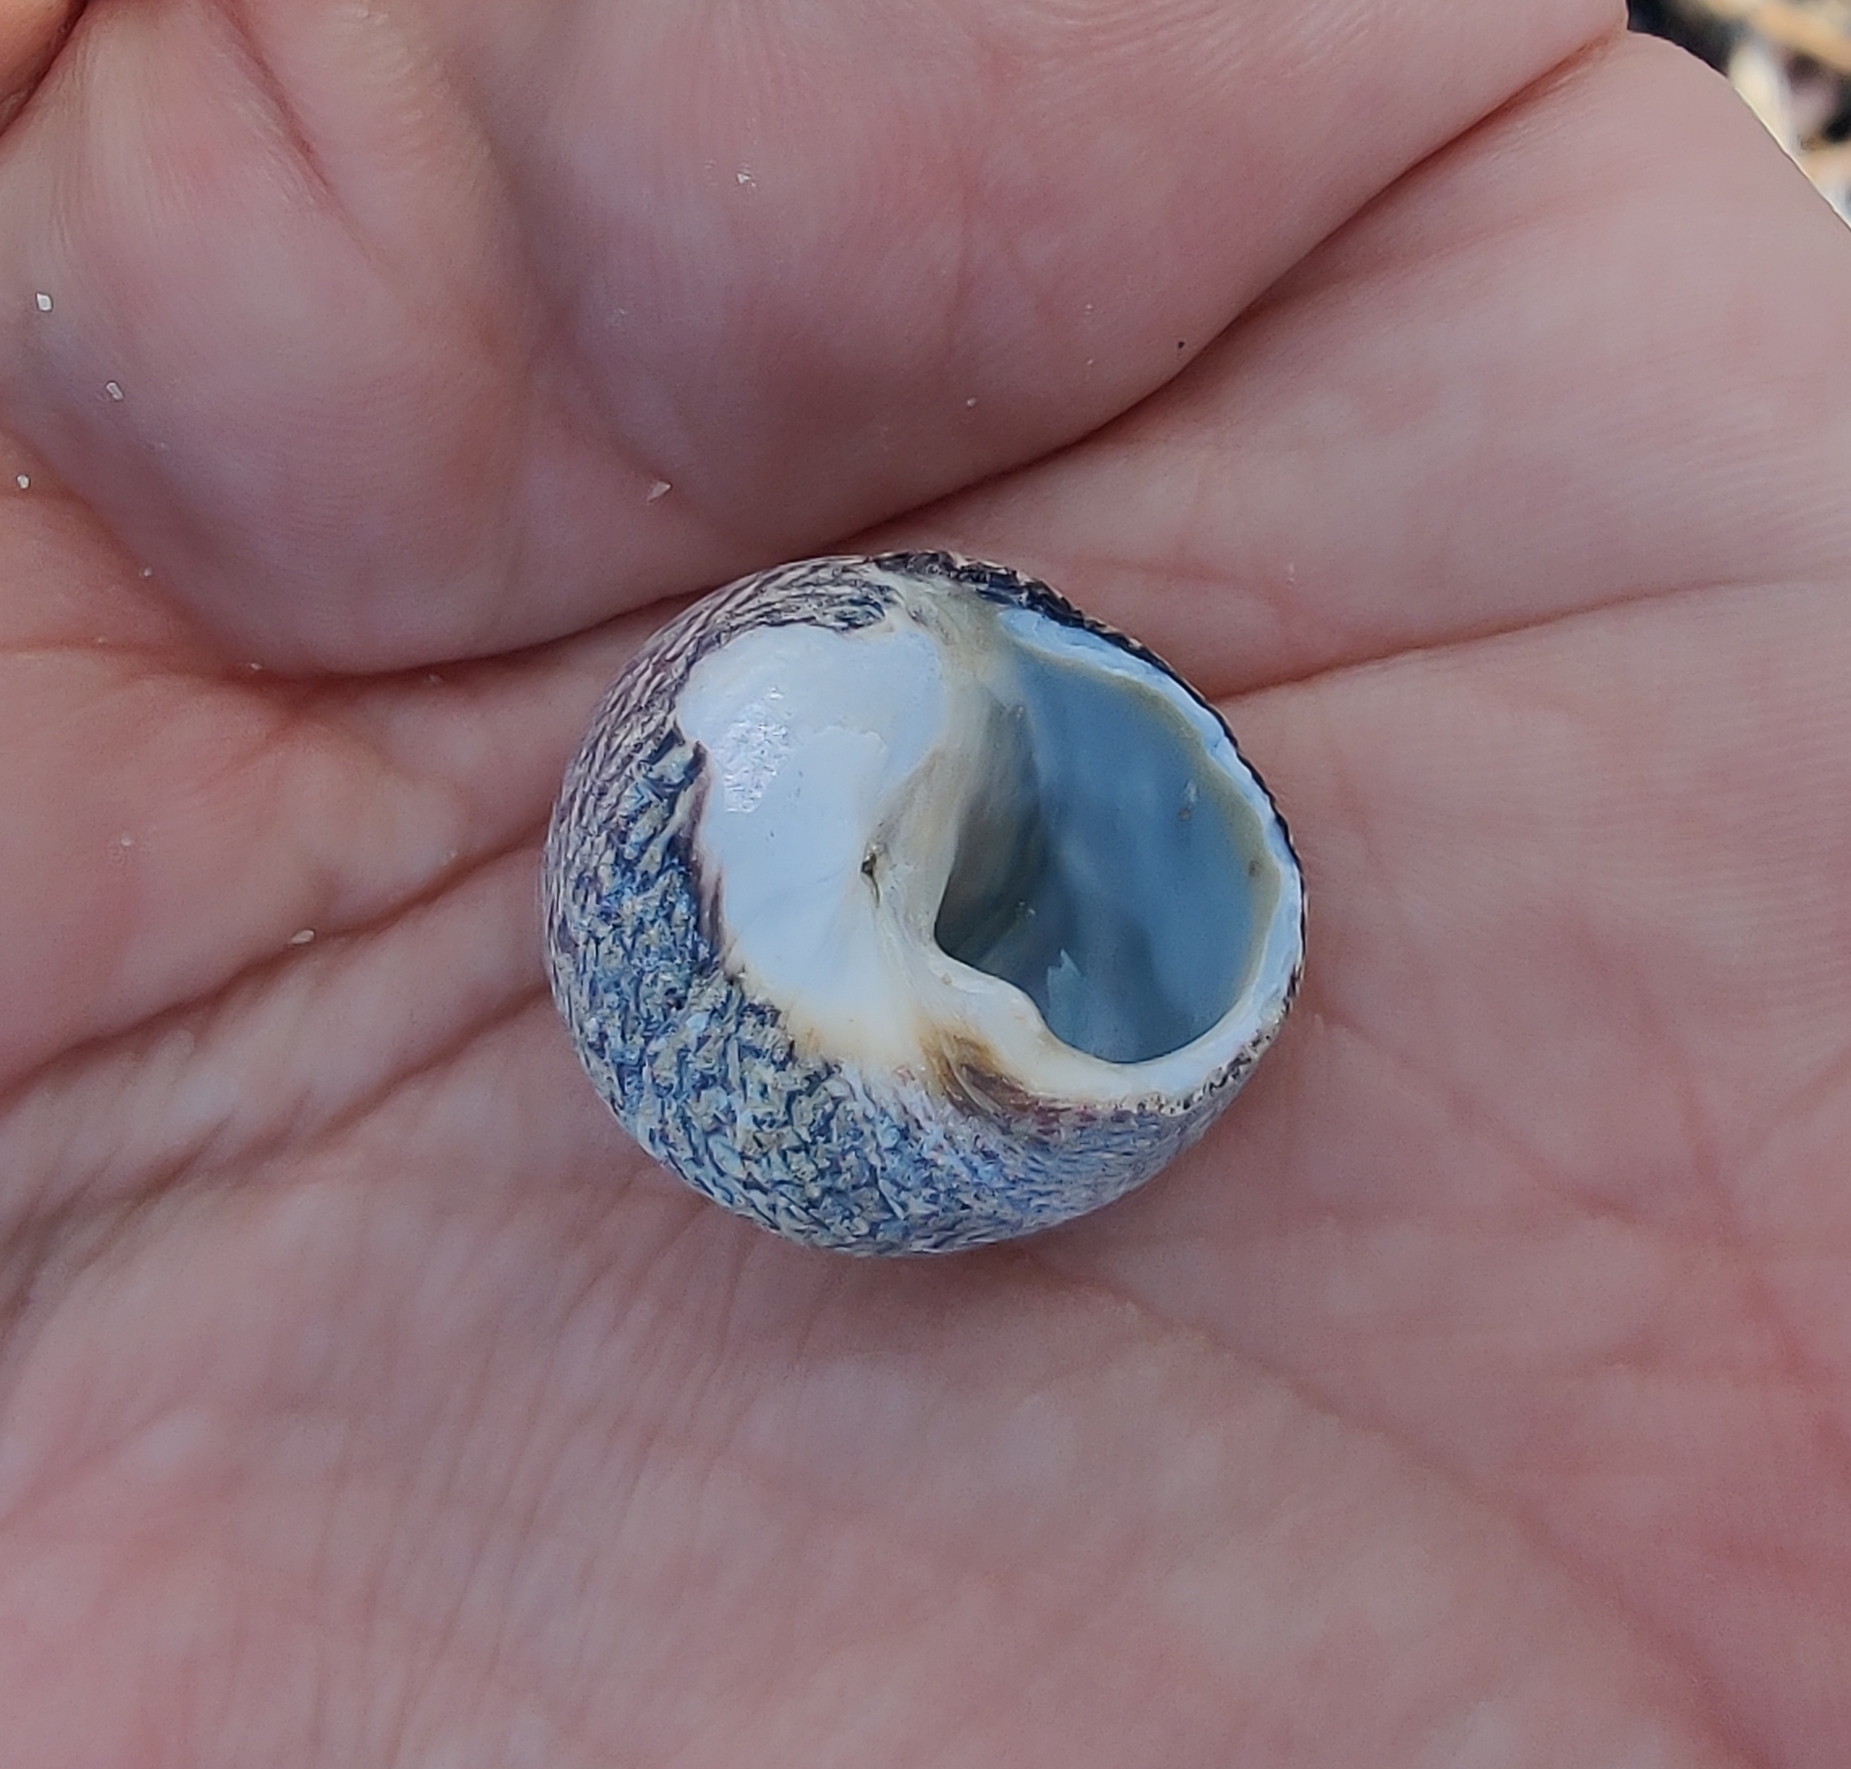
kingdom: Animalia
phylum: Mollusca
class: Gastropoda
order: Trochida
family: Trochidae
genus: Phorcus
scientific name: Phorcus lineatus
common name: Toothed top shell
